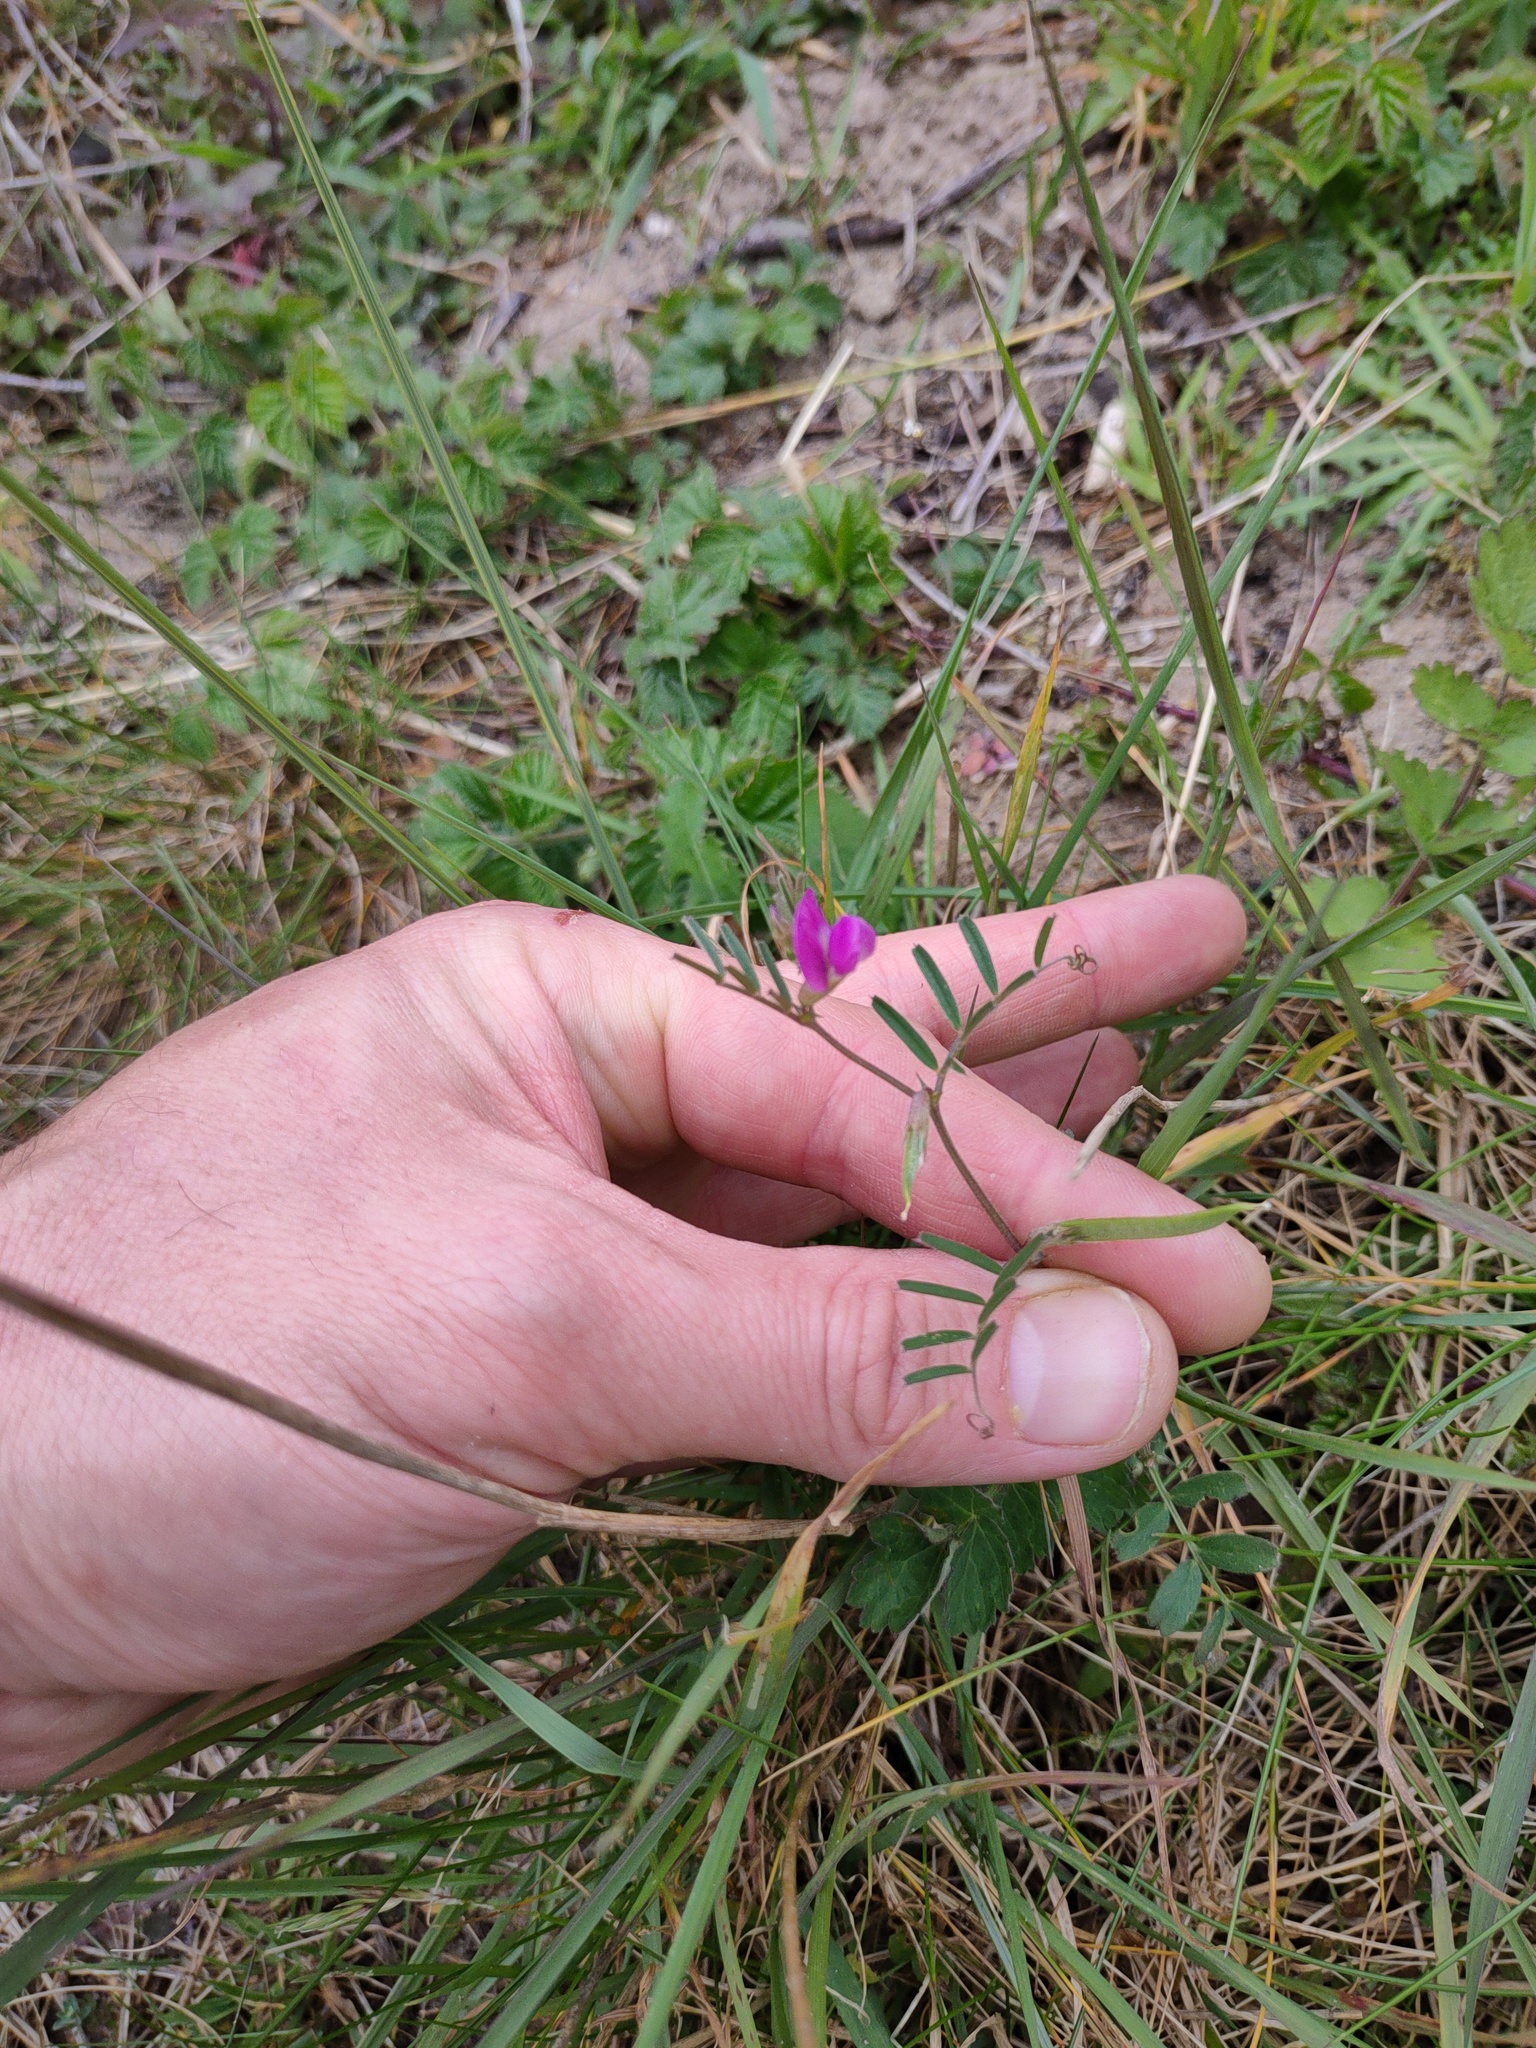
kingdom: Plantae
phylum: Tracheophyta
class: Magnoliopsida
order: Fabales
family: Fabaceae
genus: Vicia
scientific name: Vicia sativa
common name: Garden vetch
